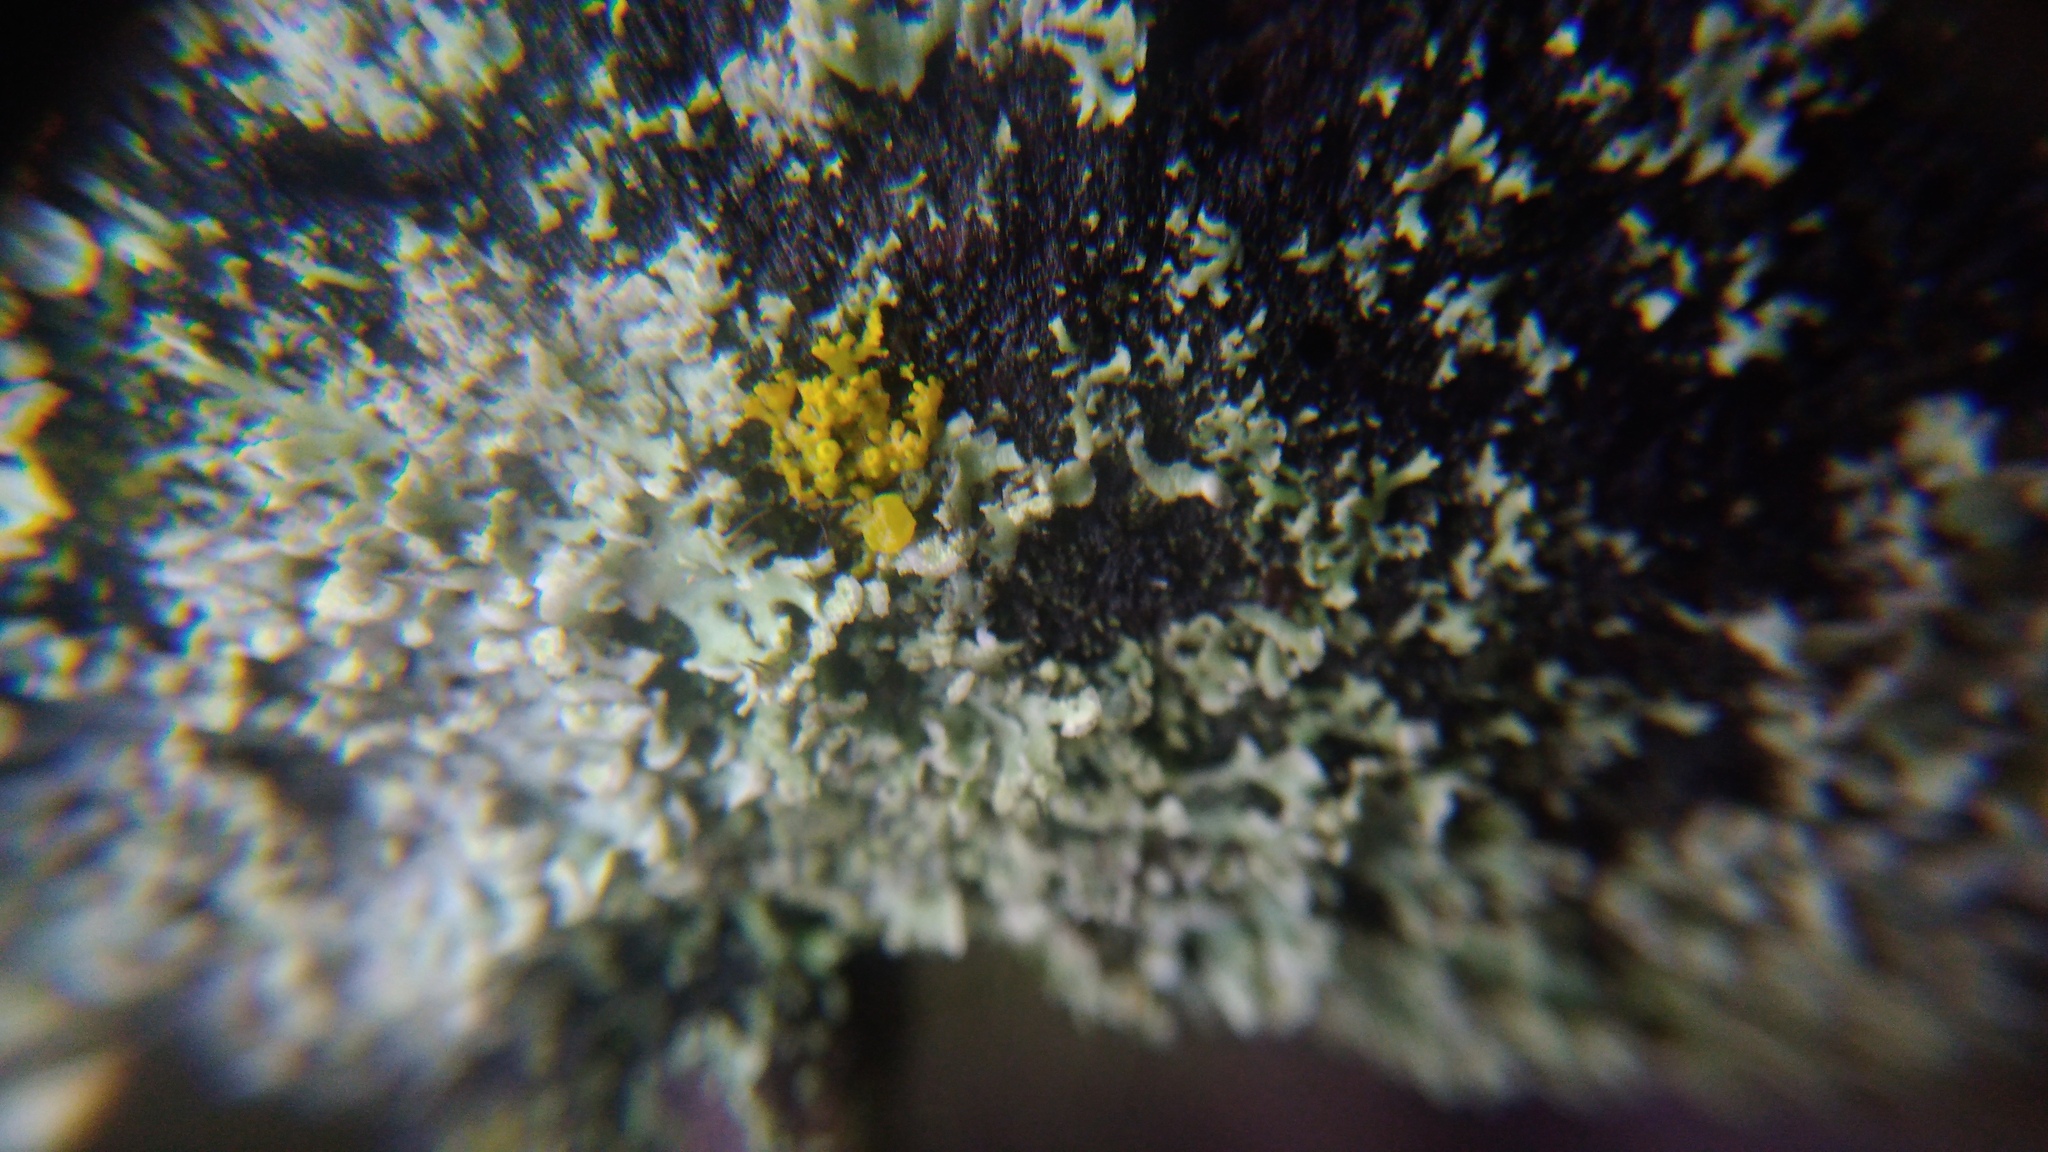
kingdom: Fungi
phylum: Ascomycota
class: Lecanoromycetes
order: Teloschistales
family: Teloschistaceae
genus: Polycauliona
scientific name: Polycauliona polycarpa
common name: Pin-cushion sunburst lichen
